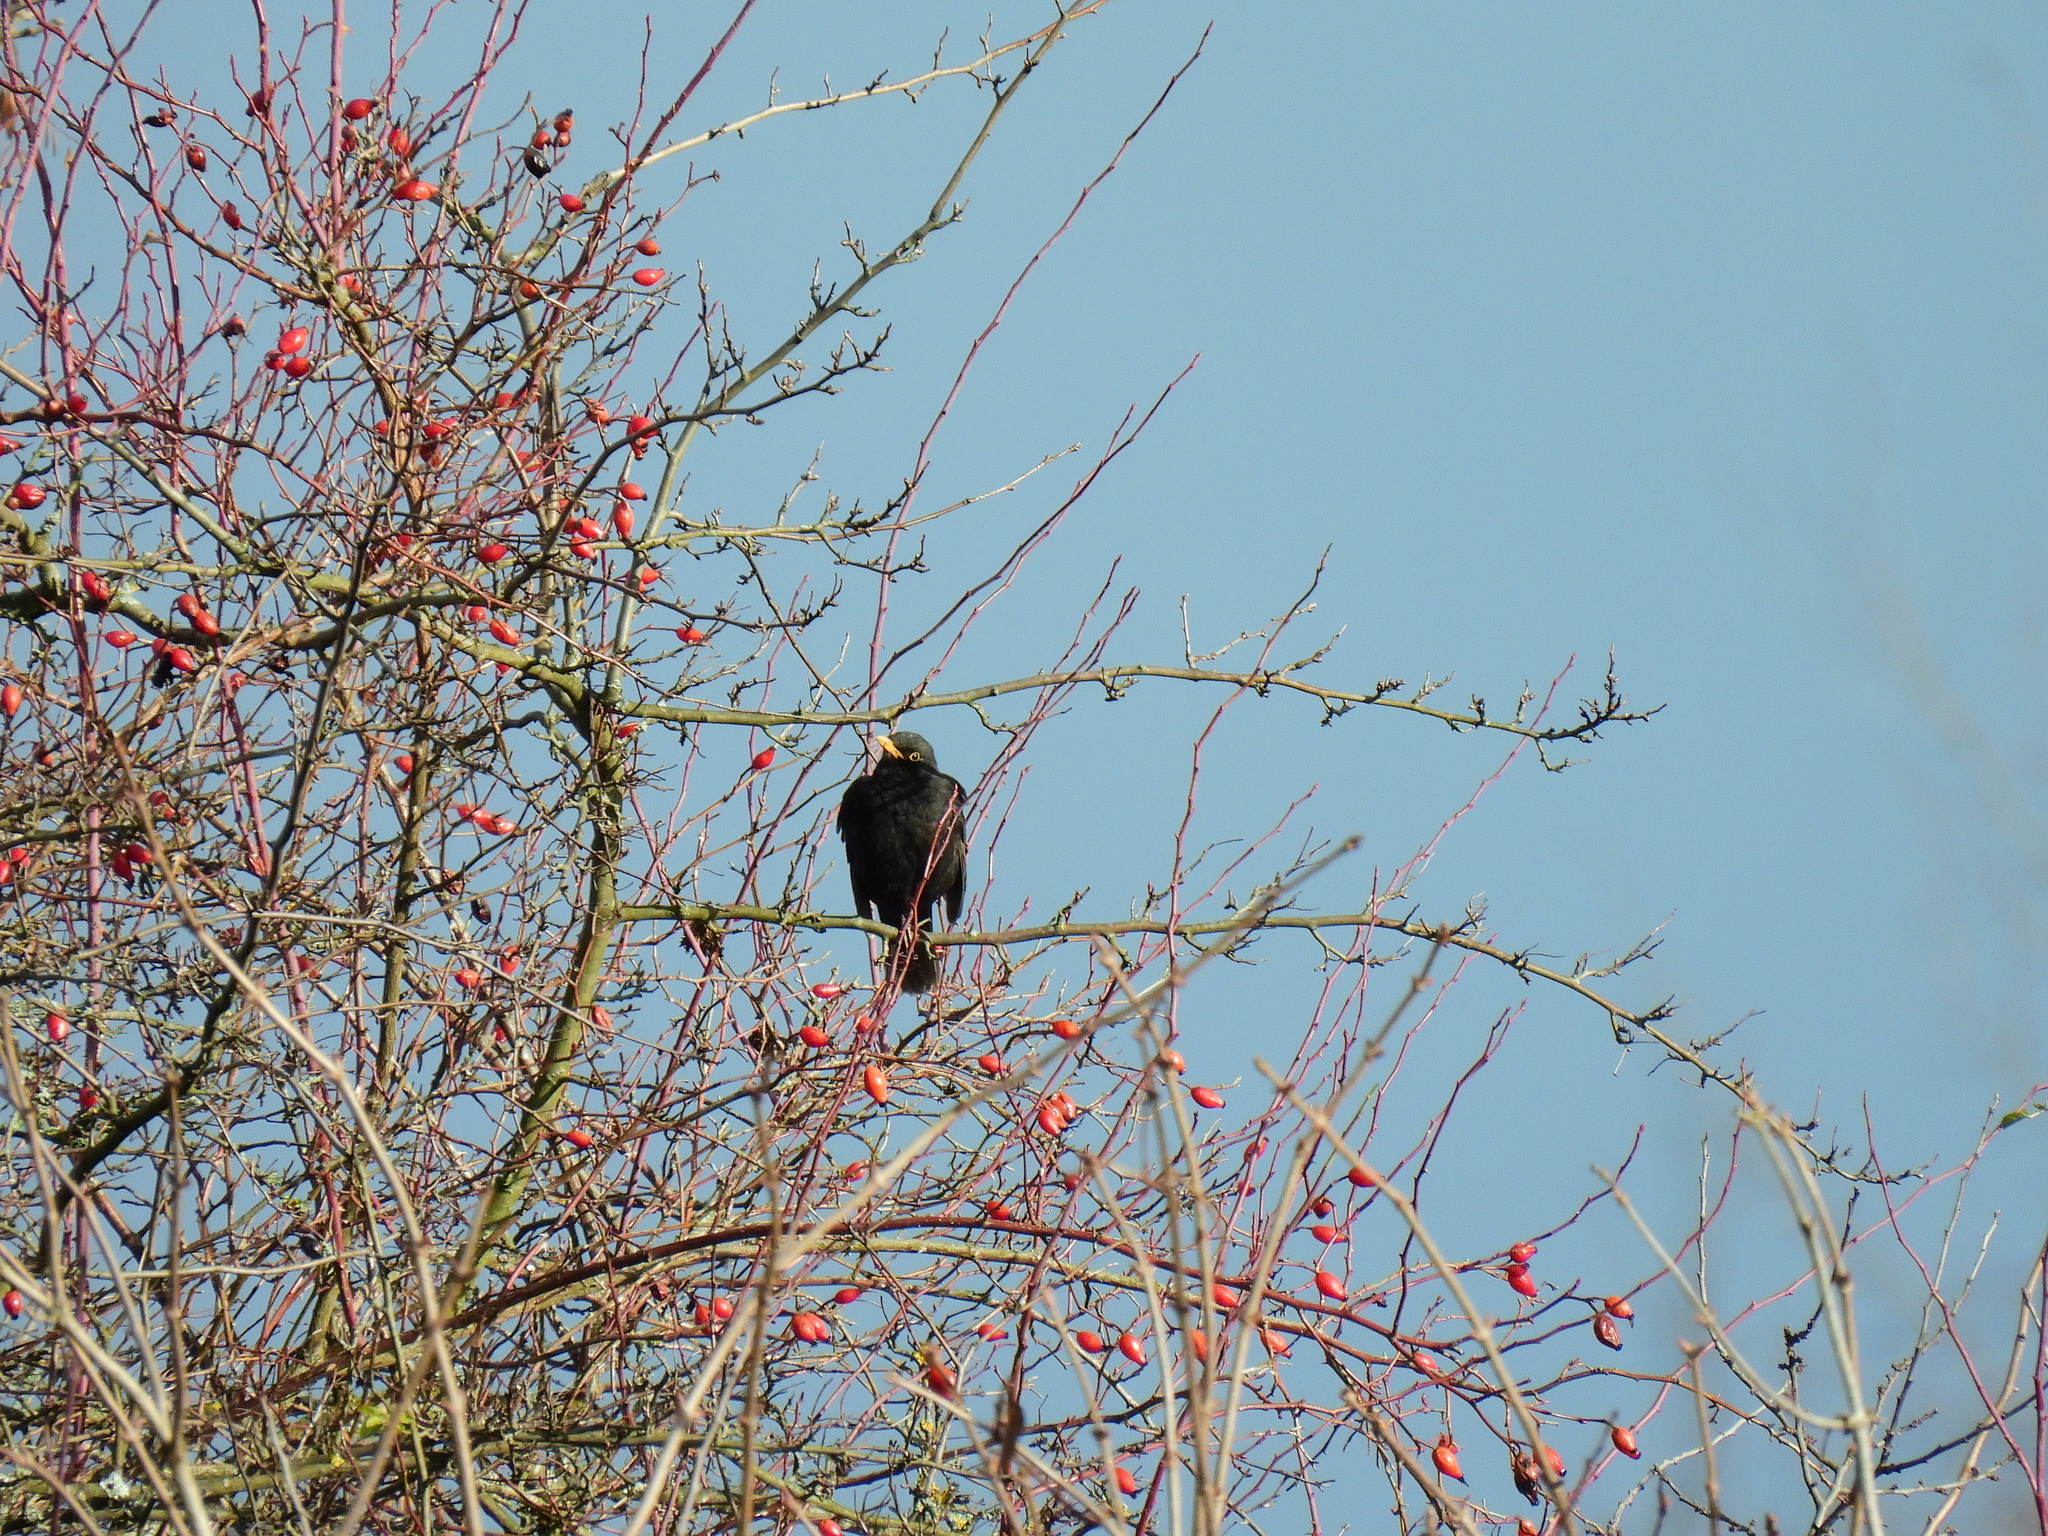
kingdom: Animalia
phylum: Chordata
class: Aves
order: Passeriformes
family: Turdidae
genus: Turdus
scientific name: Turdus merula
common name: Common blackbird
